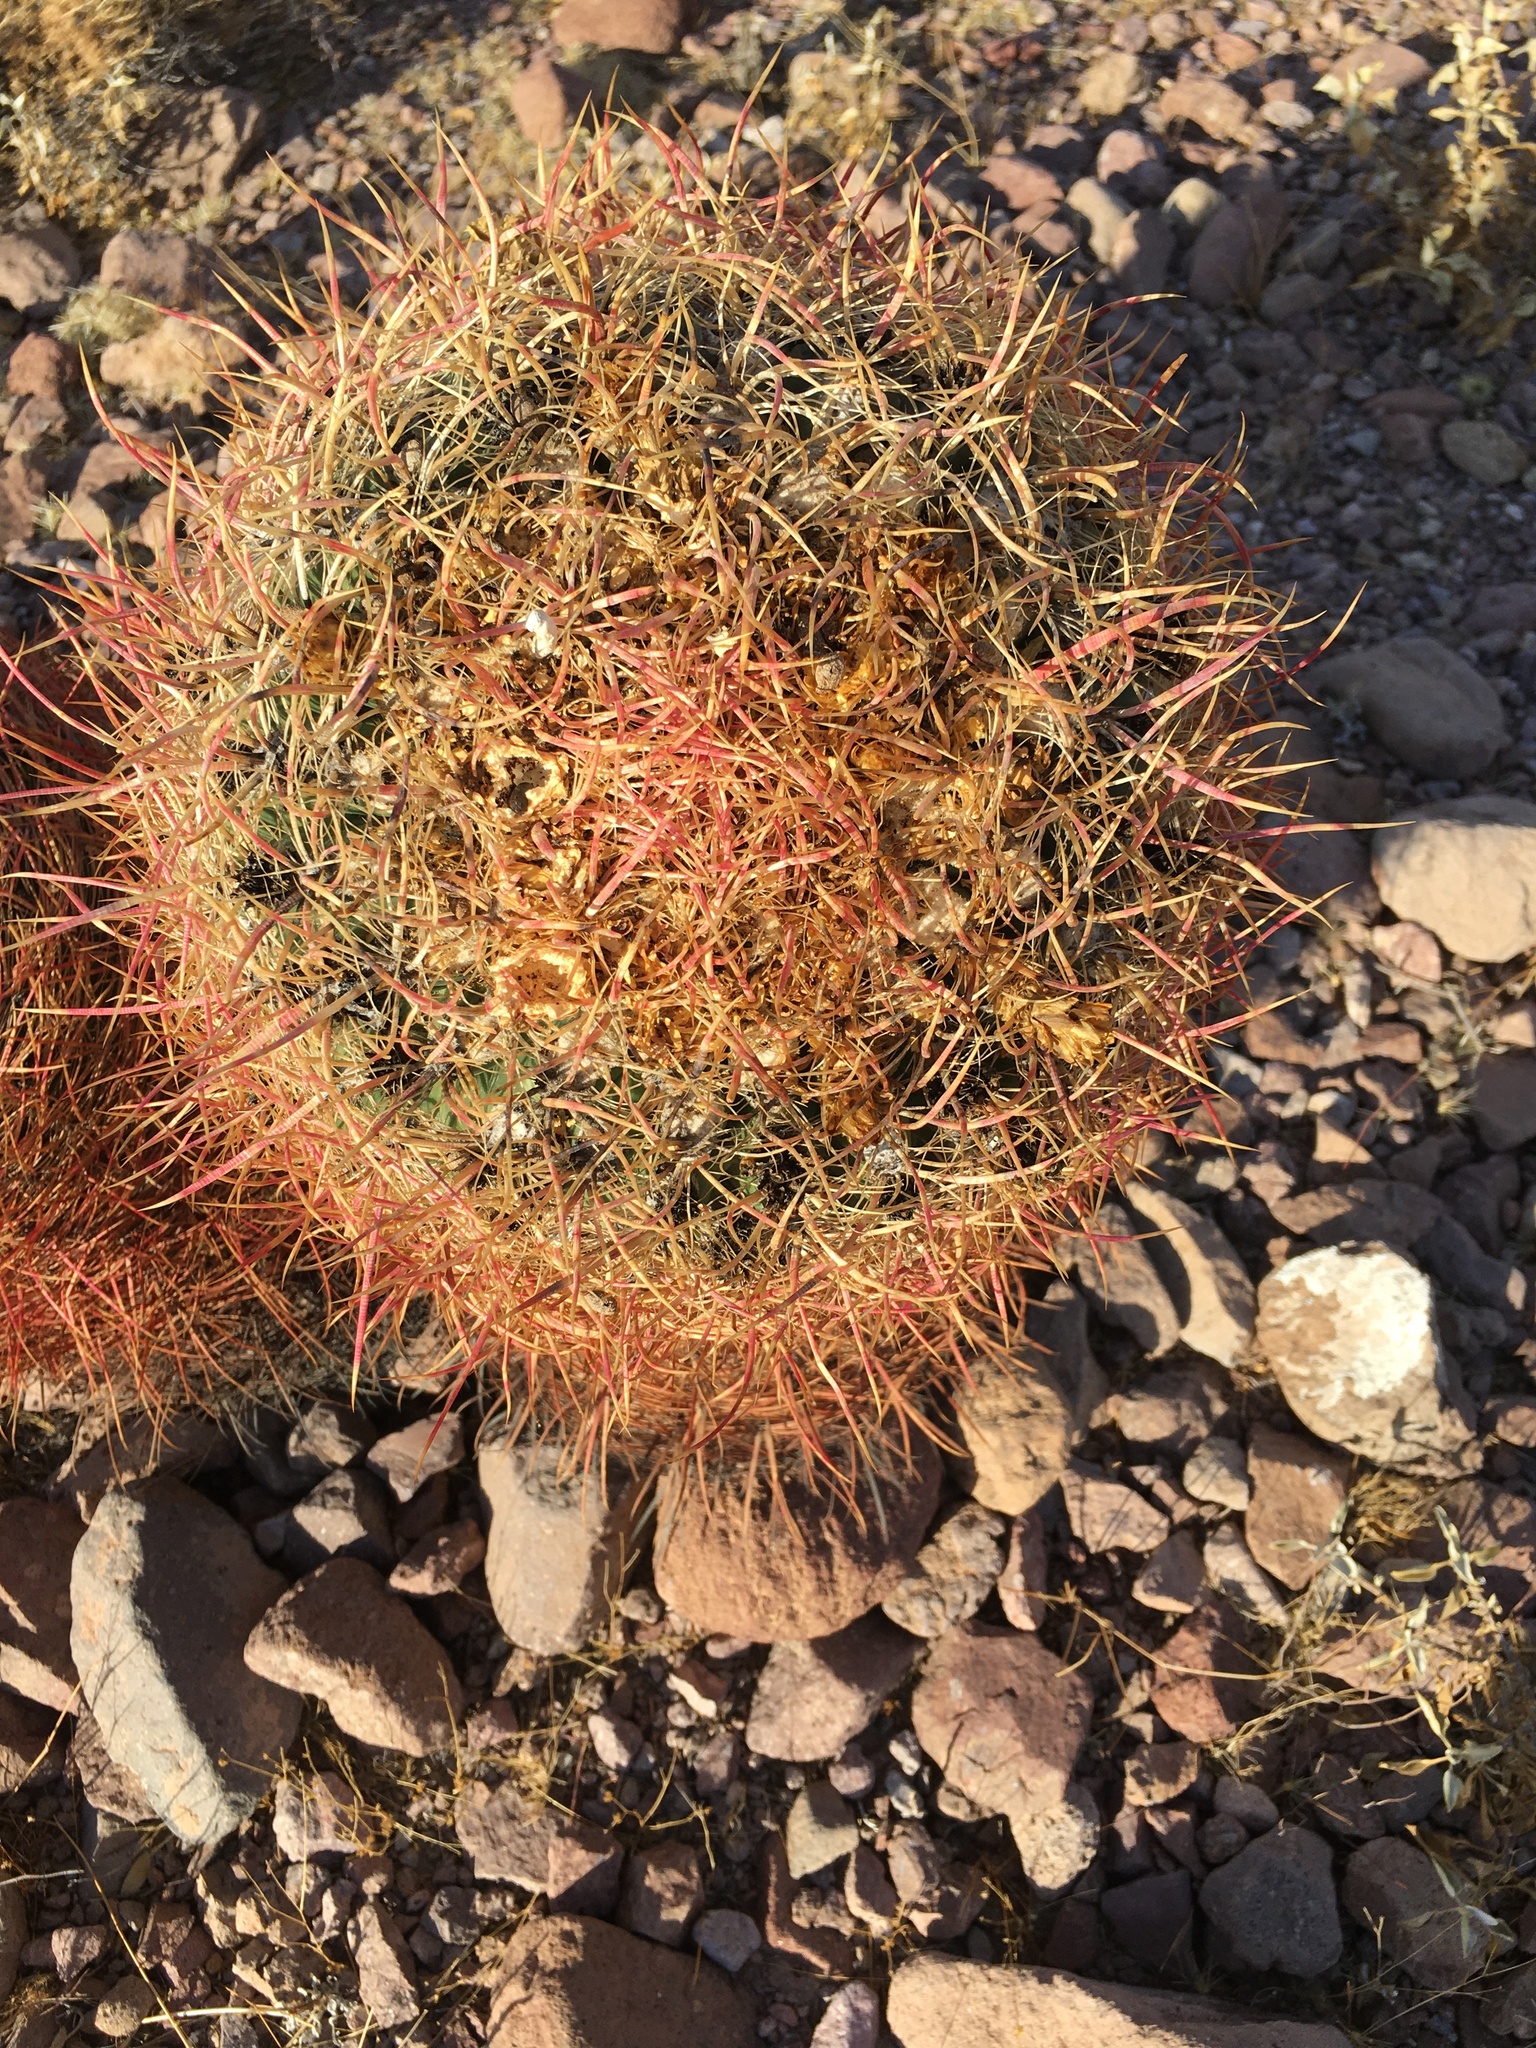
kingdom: Plantae
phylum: Tracheophyta
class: Magnoliopsida
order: Caryophyllales
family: Cactaceae
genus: Ferocactus
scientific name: Ferocactus cylindraceus
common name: California barrel cactus
